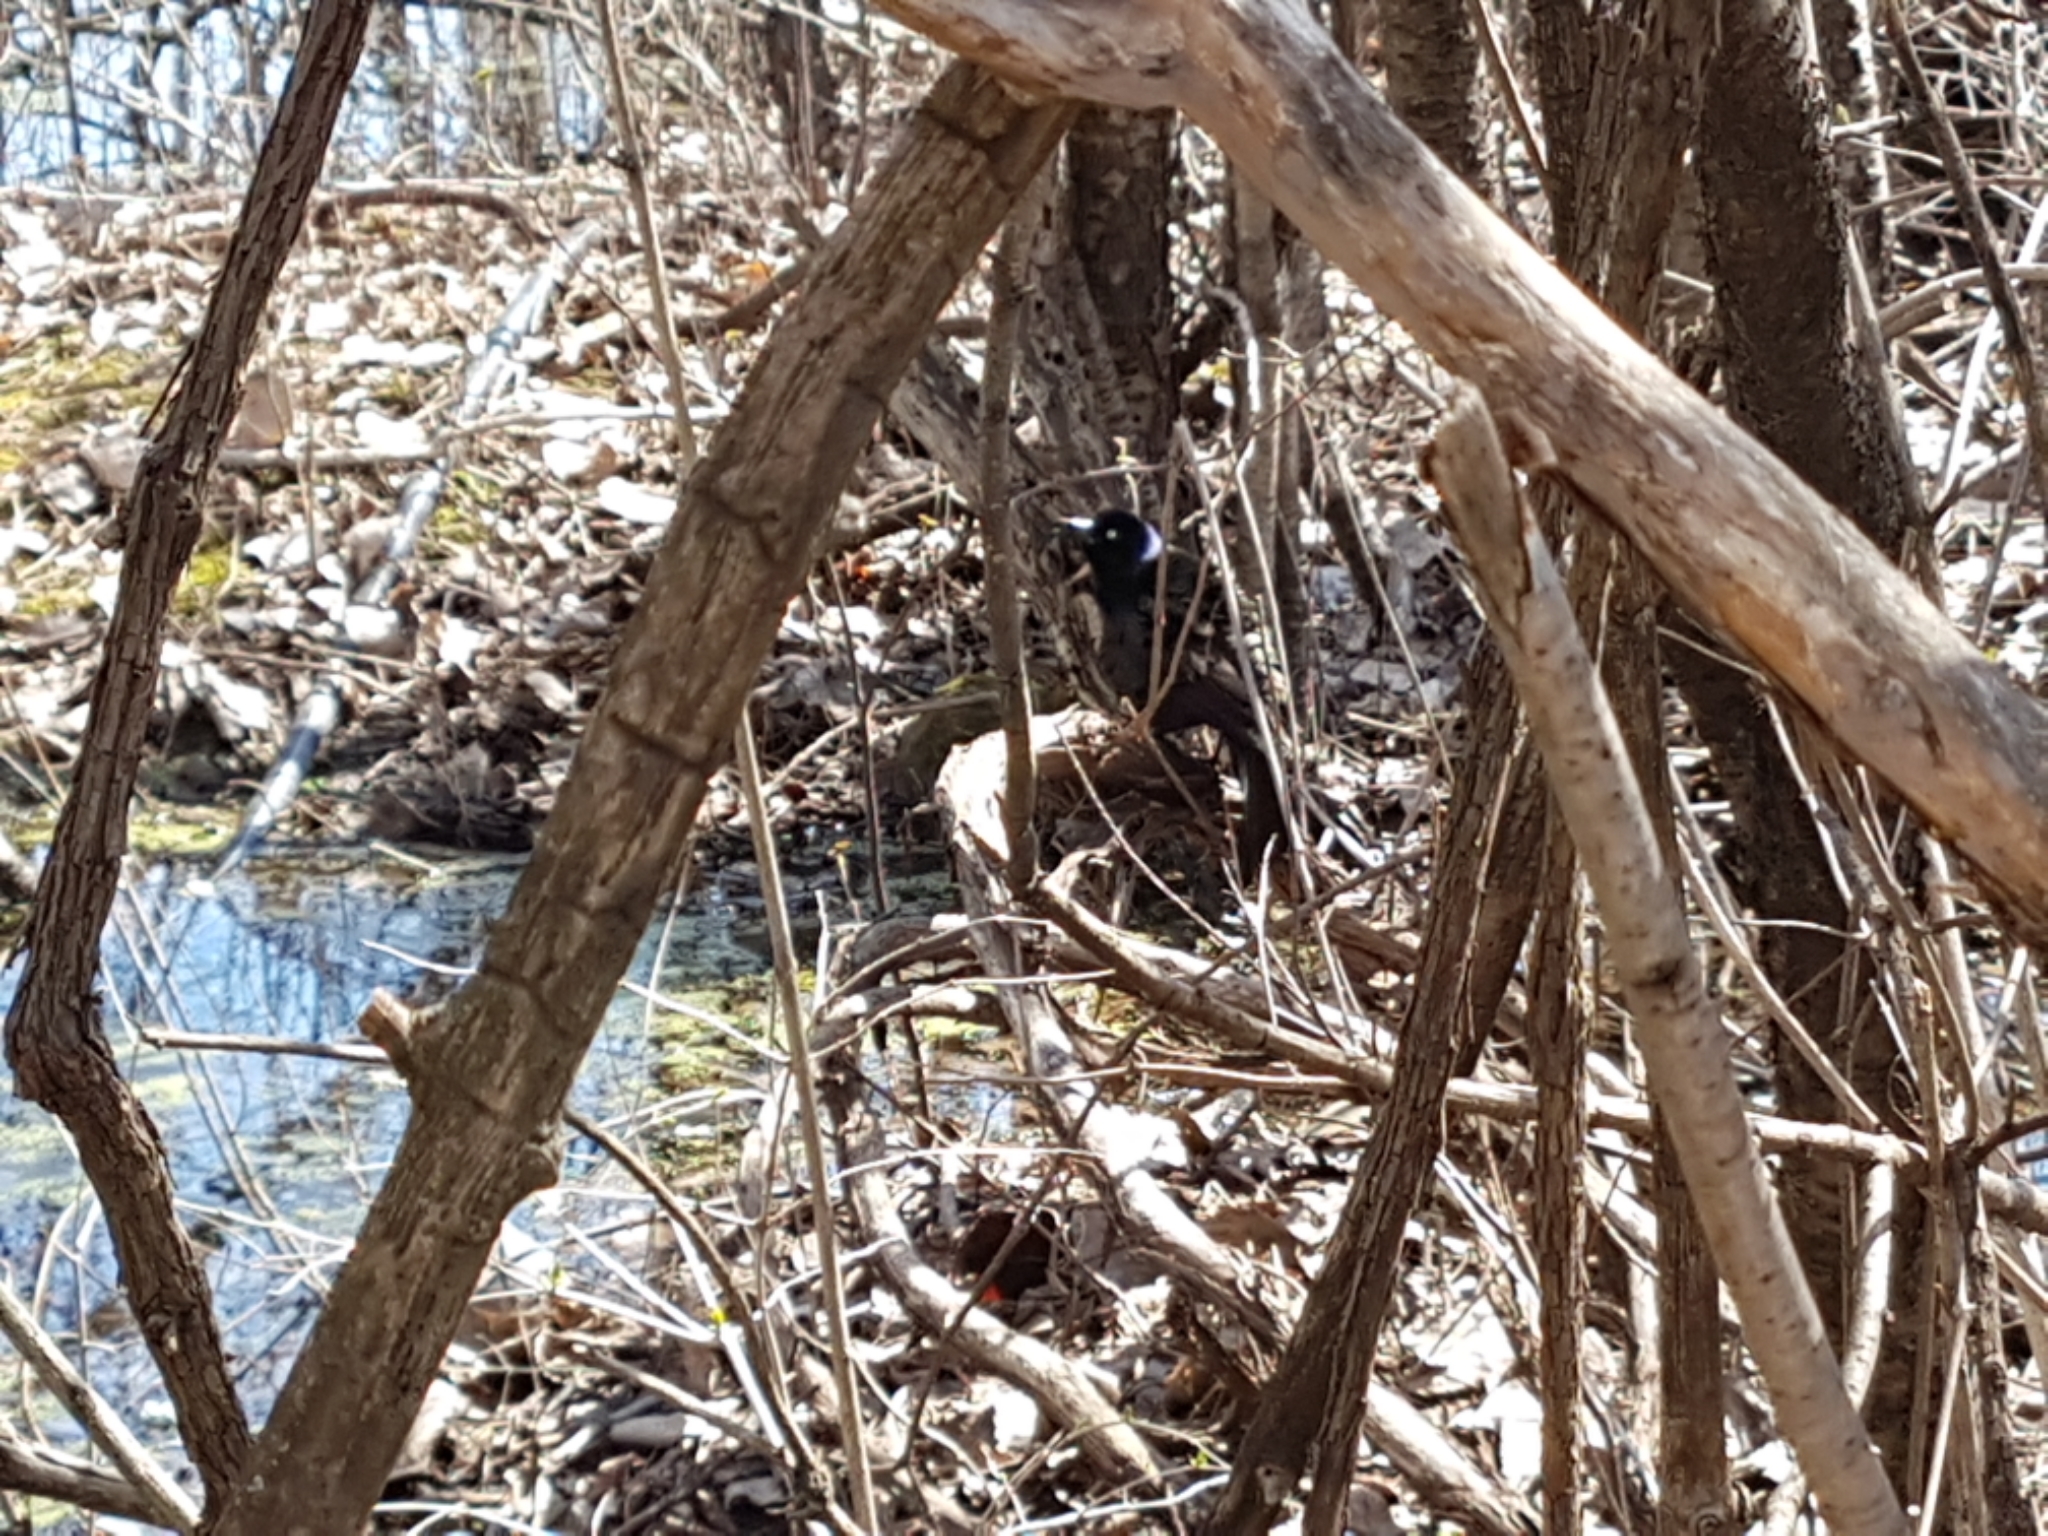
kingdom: Animalia
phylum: Chordata
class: Aves
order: Passeriformes
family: Icteridae
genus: Quiscalus
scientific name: Quiscalus quiscula
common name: Common grackle
